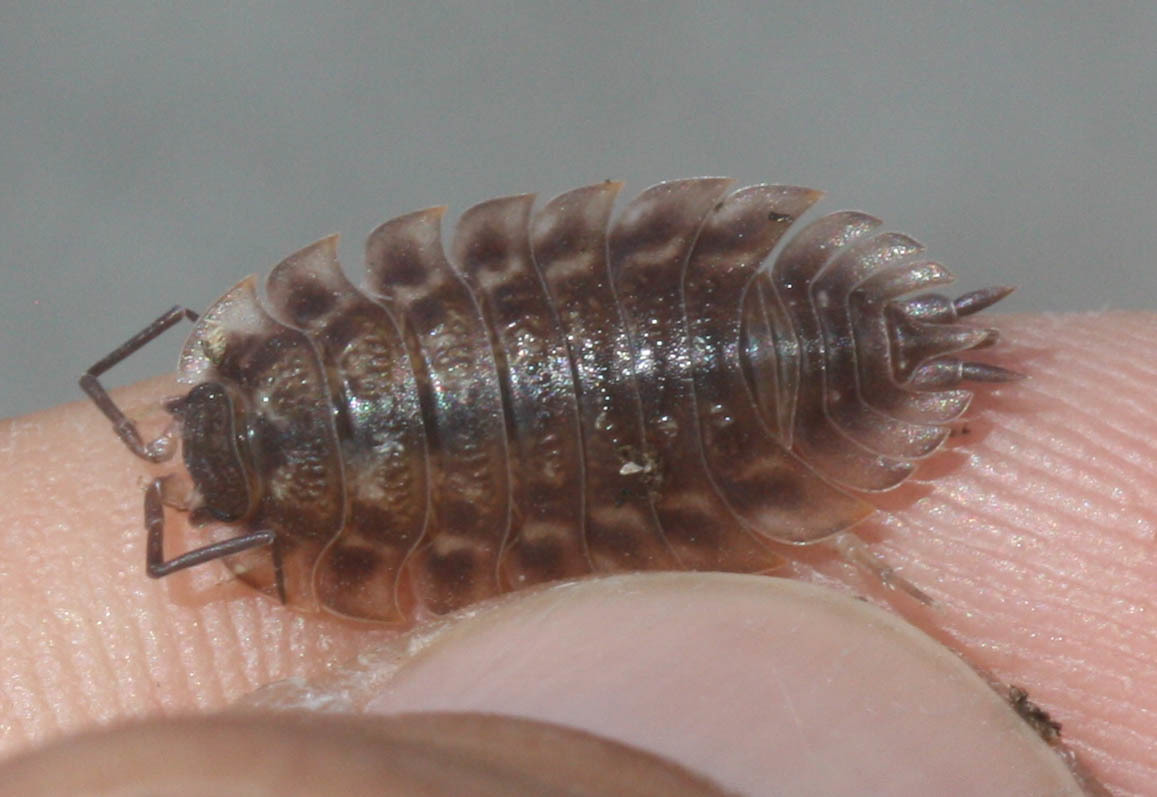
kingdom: Animalia
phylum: Arthropoda
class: Malacostraca
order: Isopoda
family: Oniscidae
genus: Oniscus
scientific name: Oniscus asellus
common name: Common shiny woodlouse
